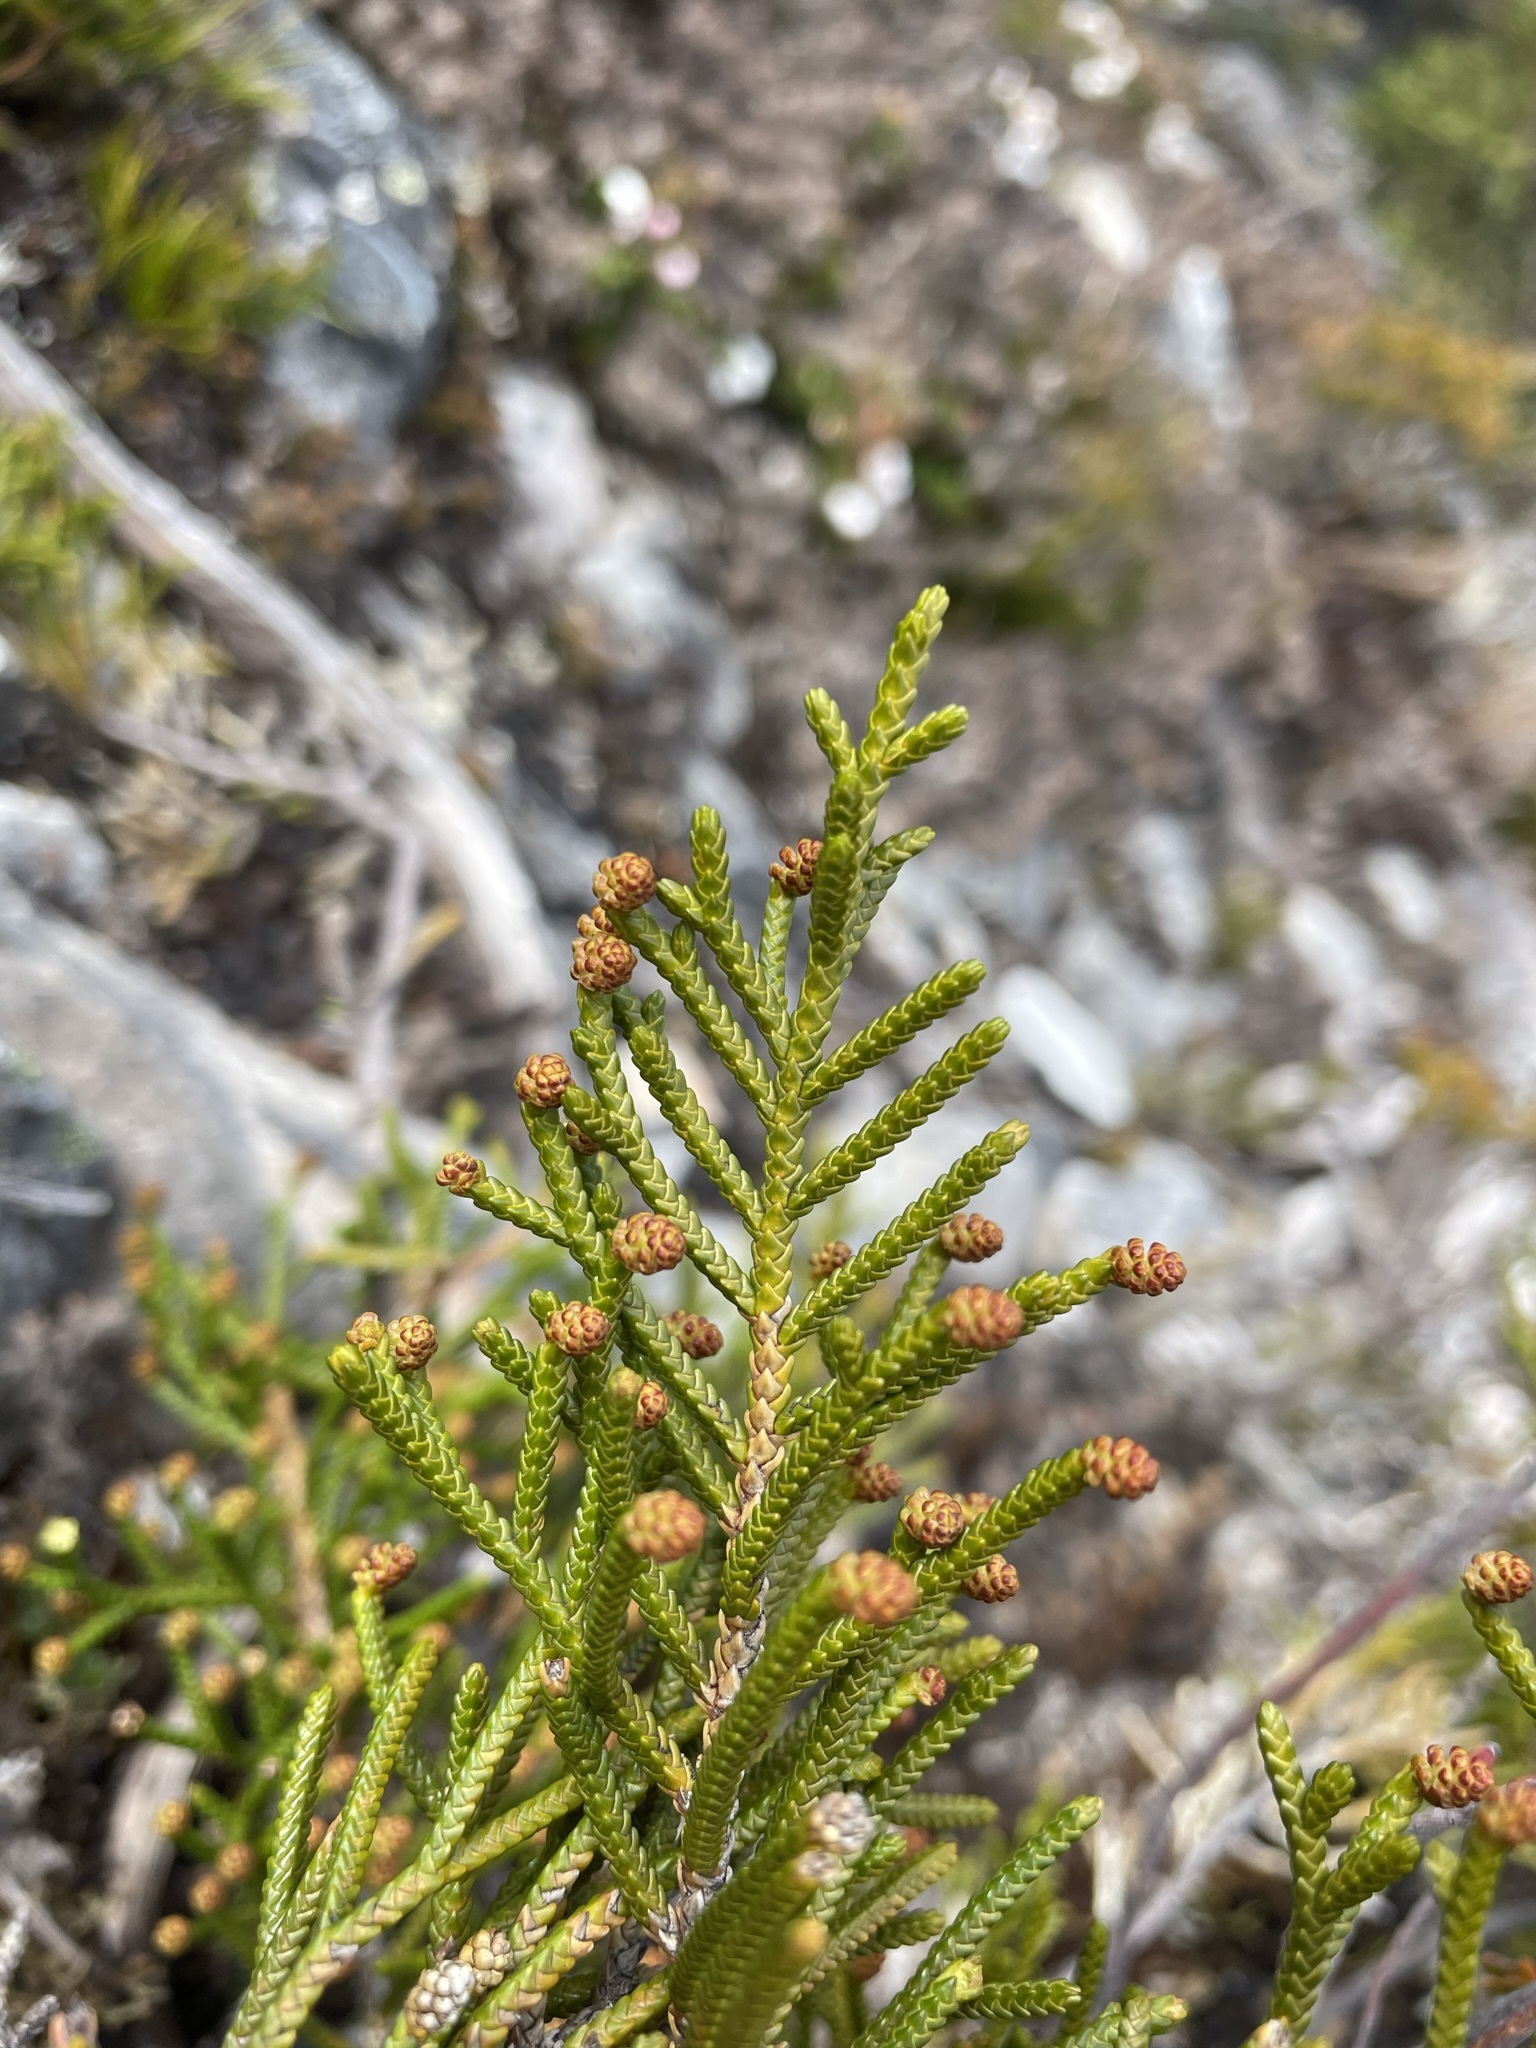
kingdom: Plantae
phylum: Tracheophyta
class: Pinopsida
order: Pinales
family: Podocarpaceae
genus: Microcachrys
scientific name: Microcachrys tetragona
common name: Creeping pine
